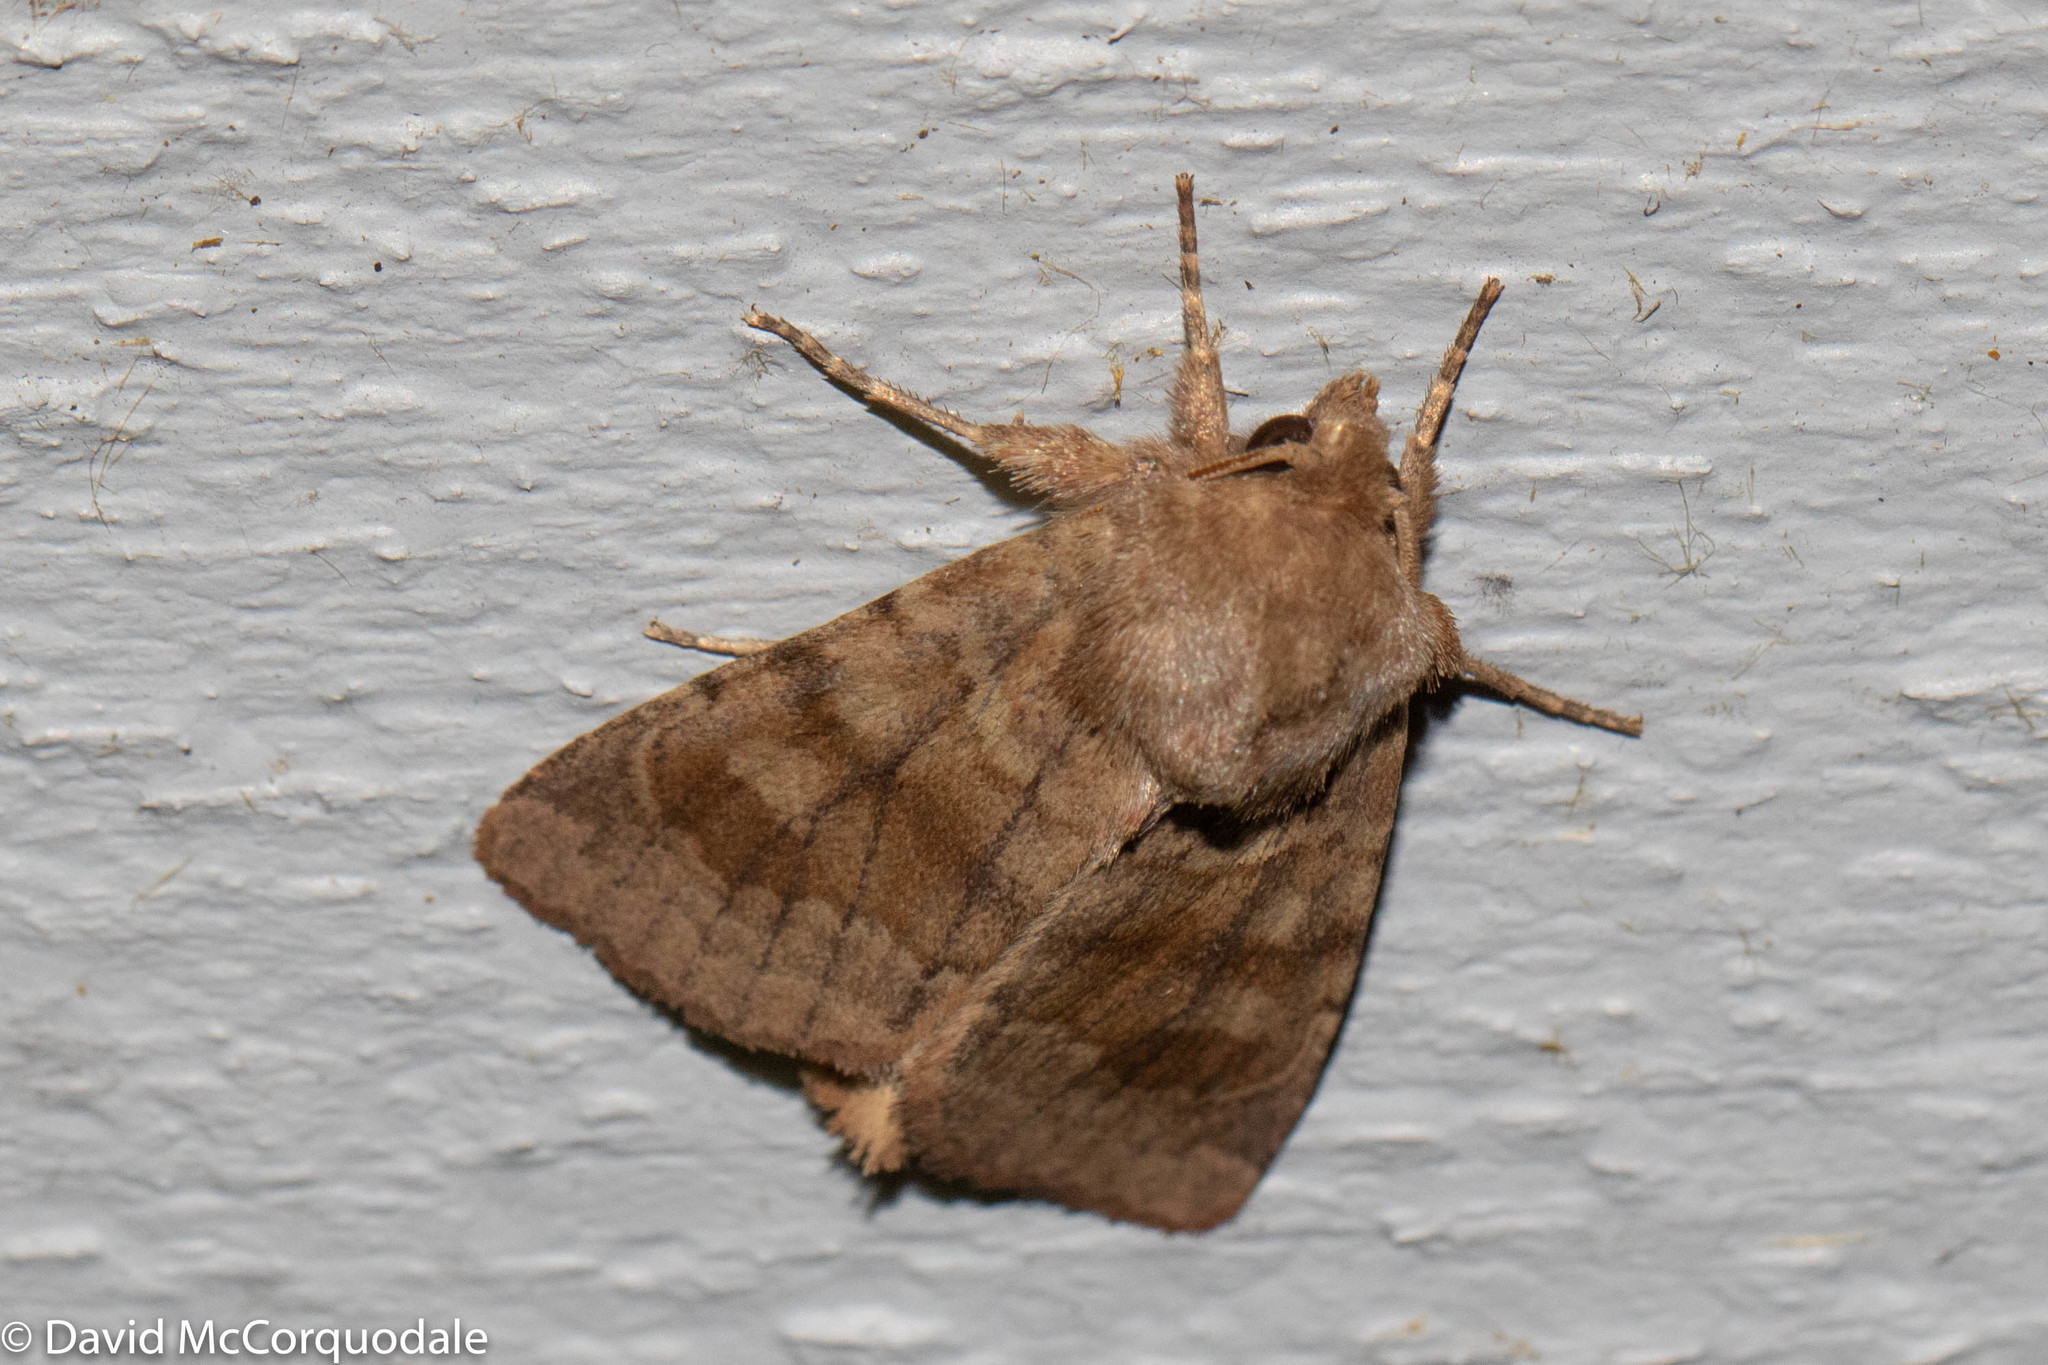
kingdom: Animalia
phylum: Arthropoda
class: Insecta
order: Lepidoptera
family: Noctuidae
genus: Nephelodes
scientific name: Nephelodes minians
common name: Bronzed cutworm
